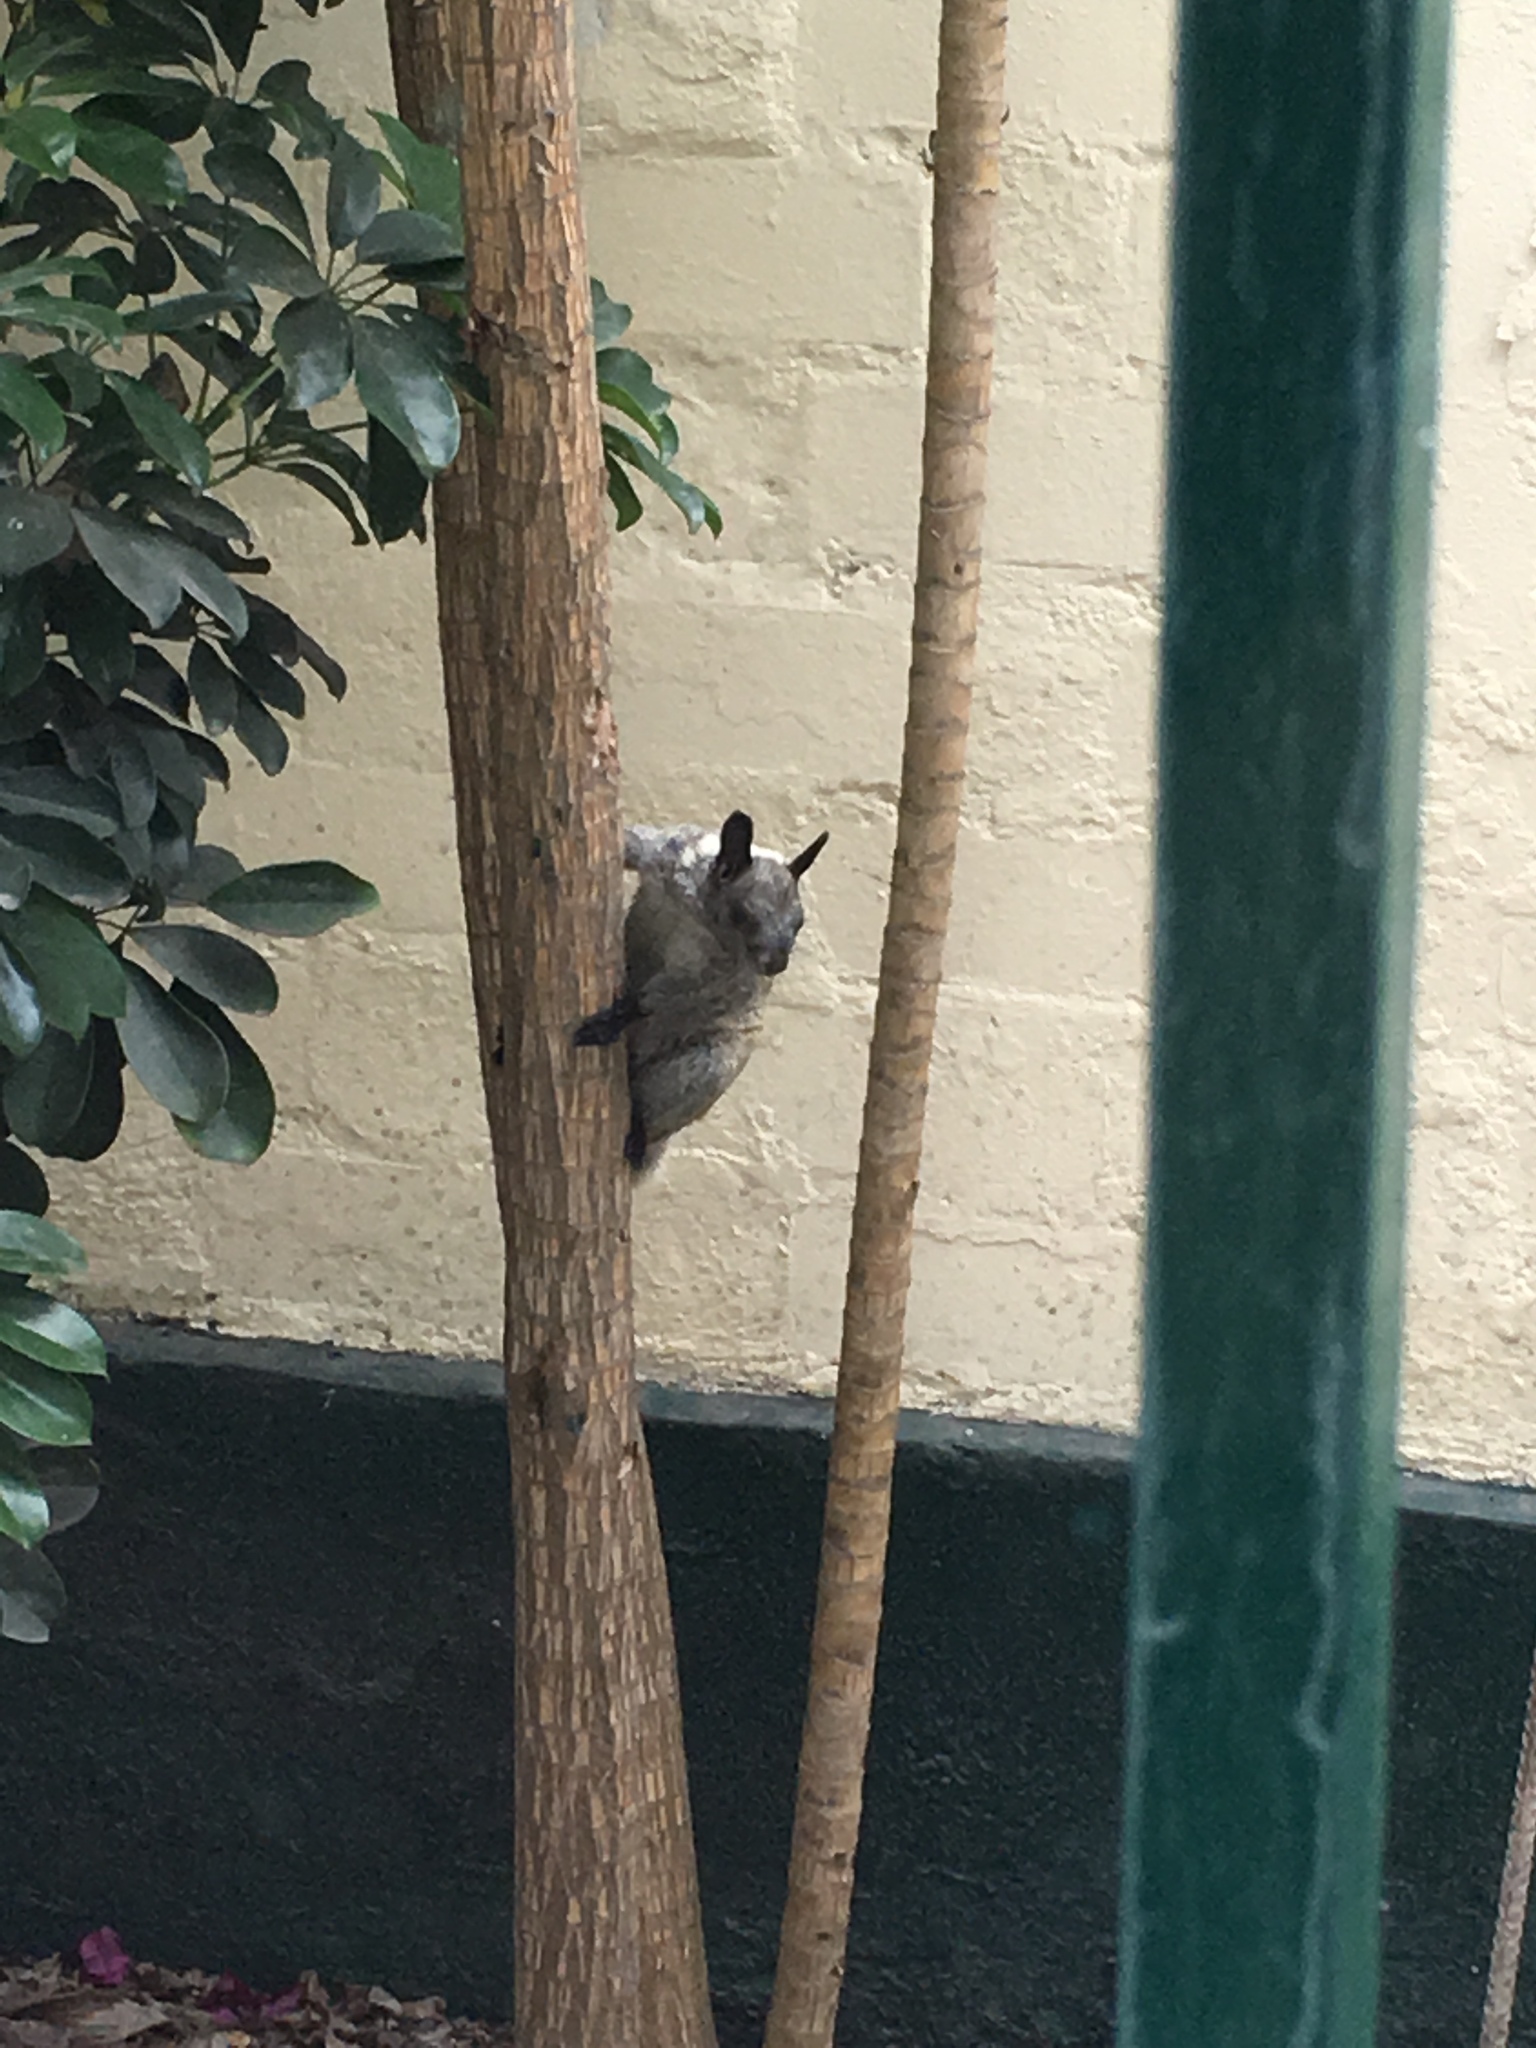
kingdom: Animalia
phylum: Chordata
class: Mammalia
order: Rodentia
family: Sciuridae
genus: Sciurus
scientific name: Sciurus stramineus
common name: Guayaquil squirrel
